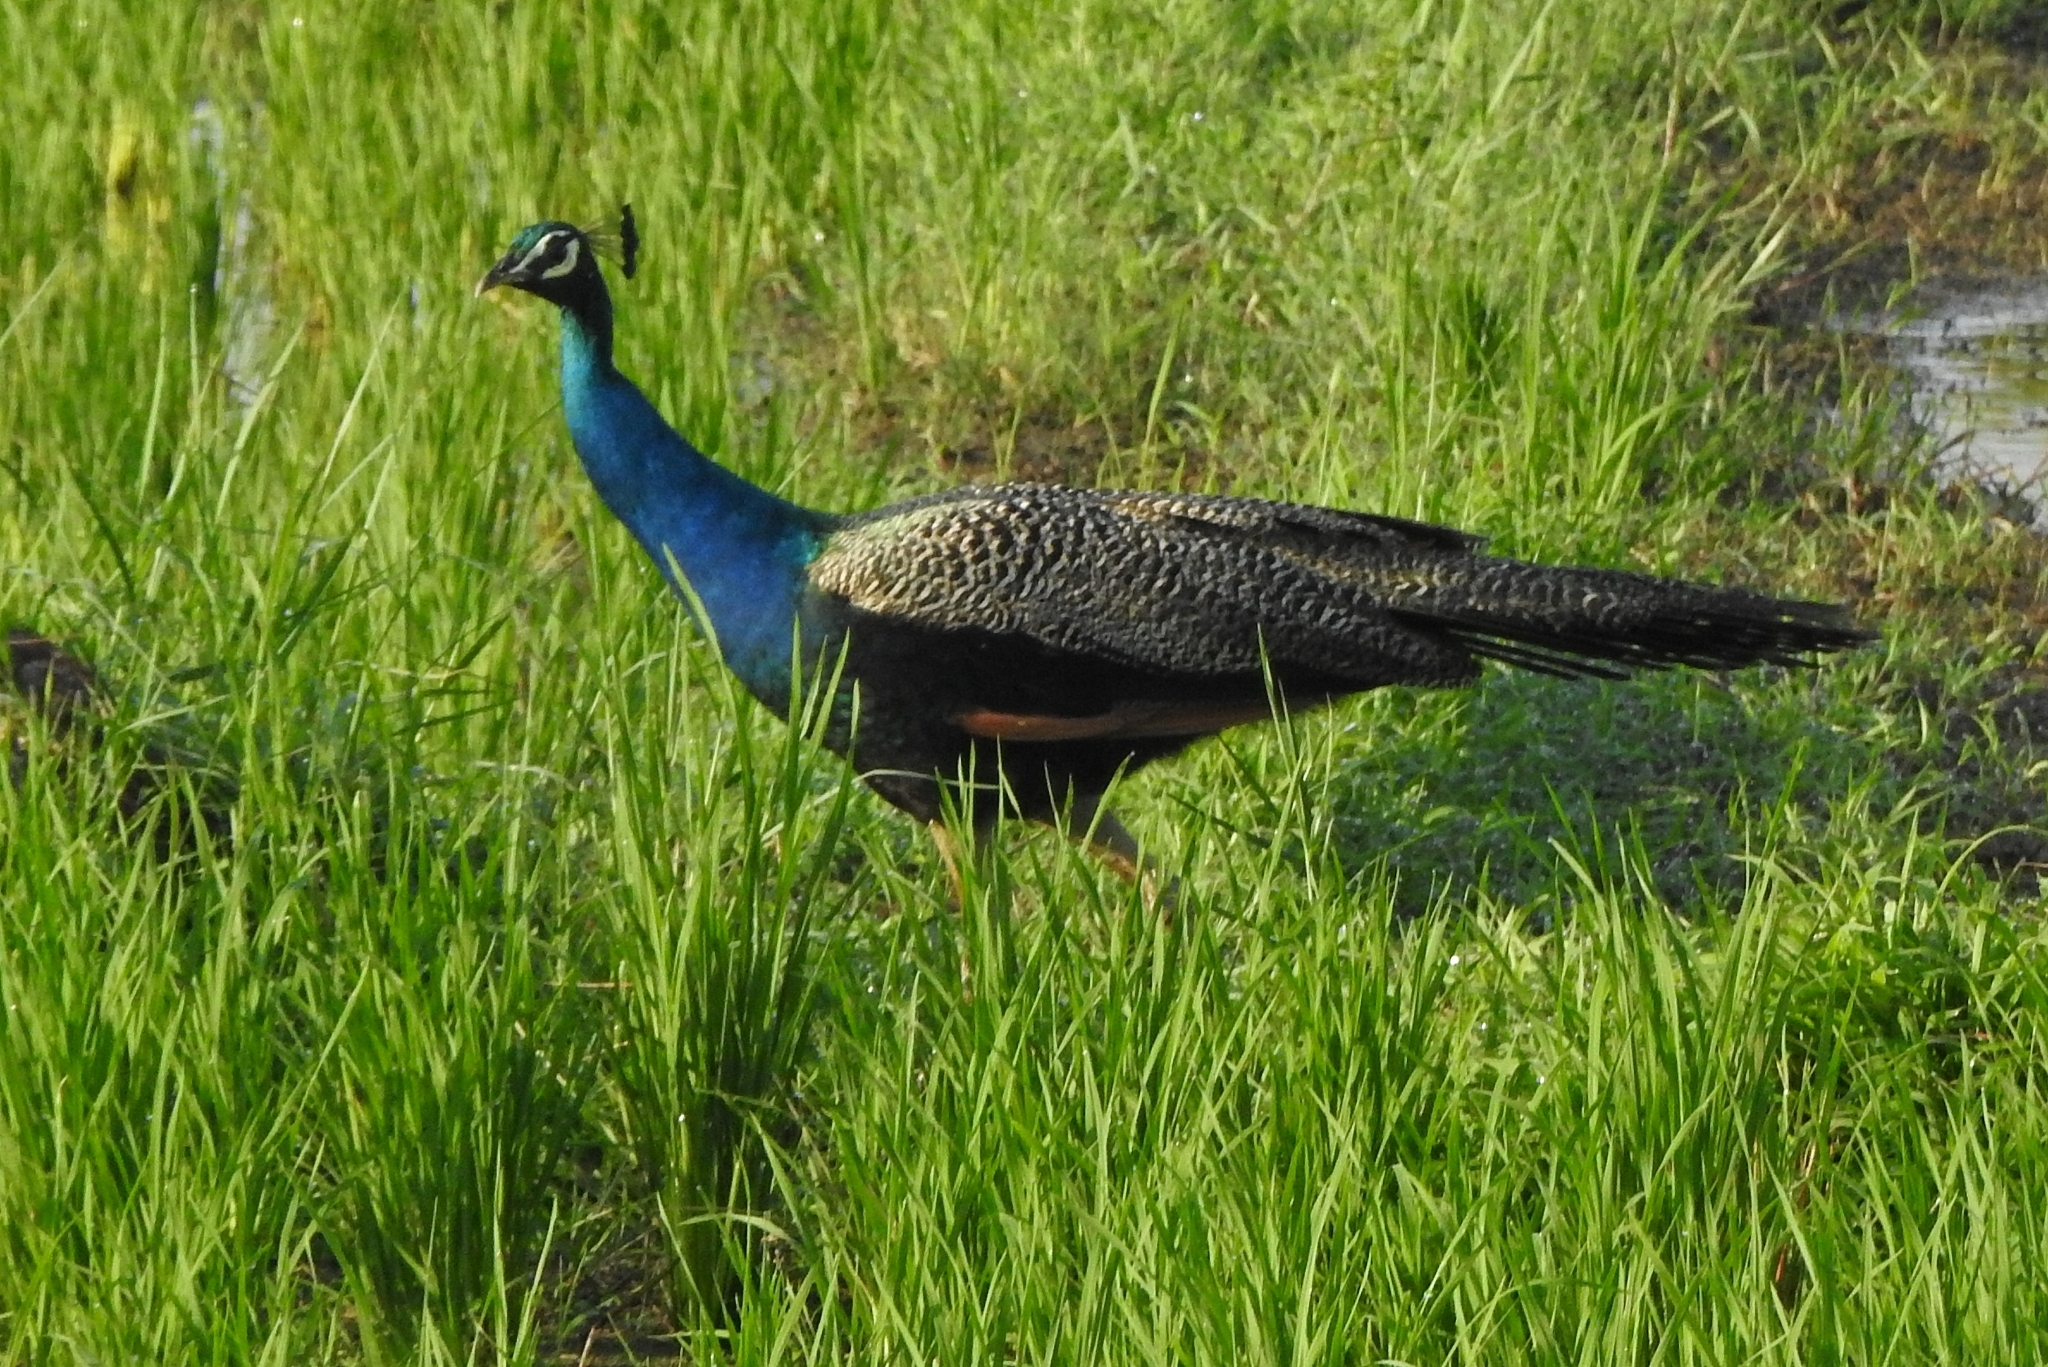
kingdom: Animalia
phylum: Chordata
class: Aves
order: Galliformes
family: Phasianidae
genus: Pavo
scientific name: Pavo cristatus
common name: Indian peafowl
